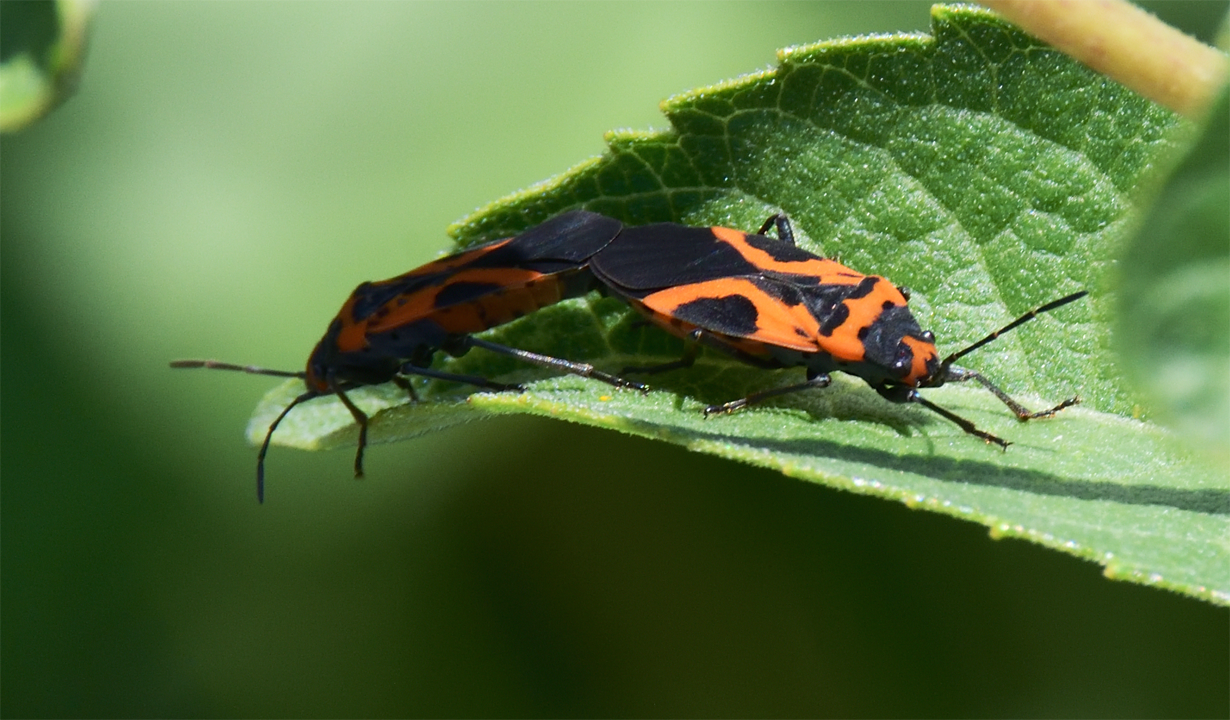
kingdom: Animalia
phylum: Arthropoda
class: Insecta
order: Hemiptera
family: Lygaeidae
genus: Lygaeus
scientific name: Lygaeus turcicus
